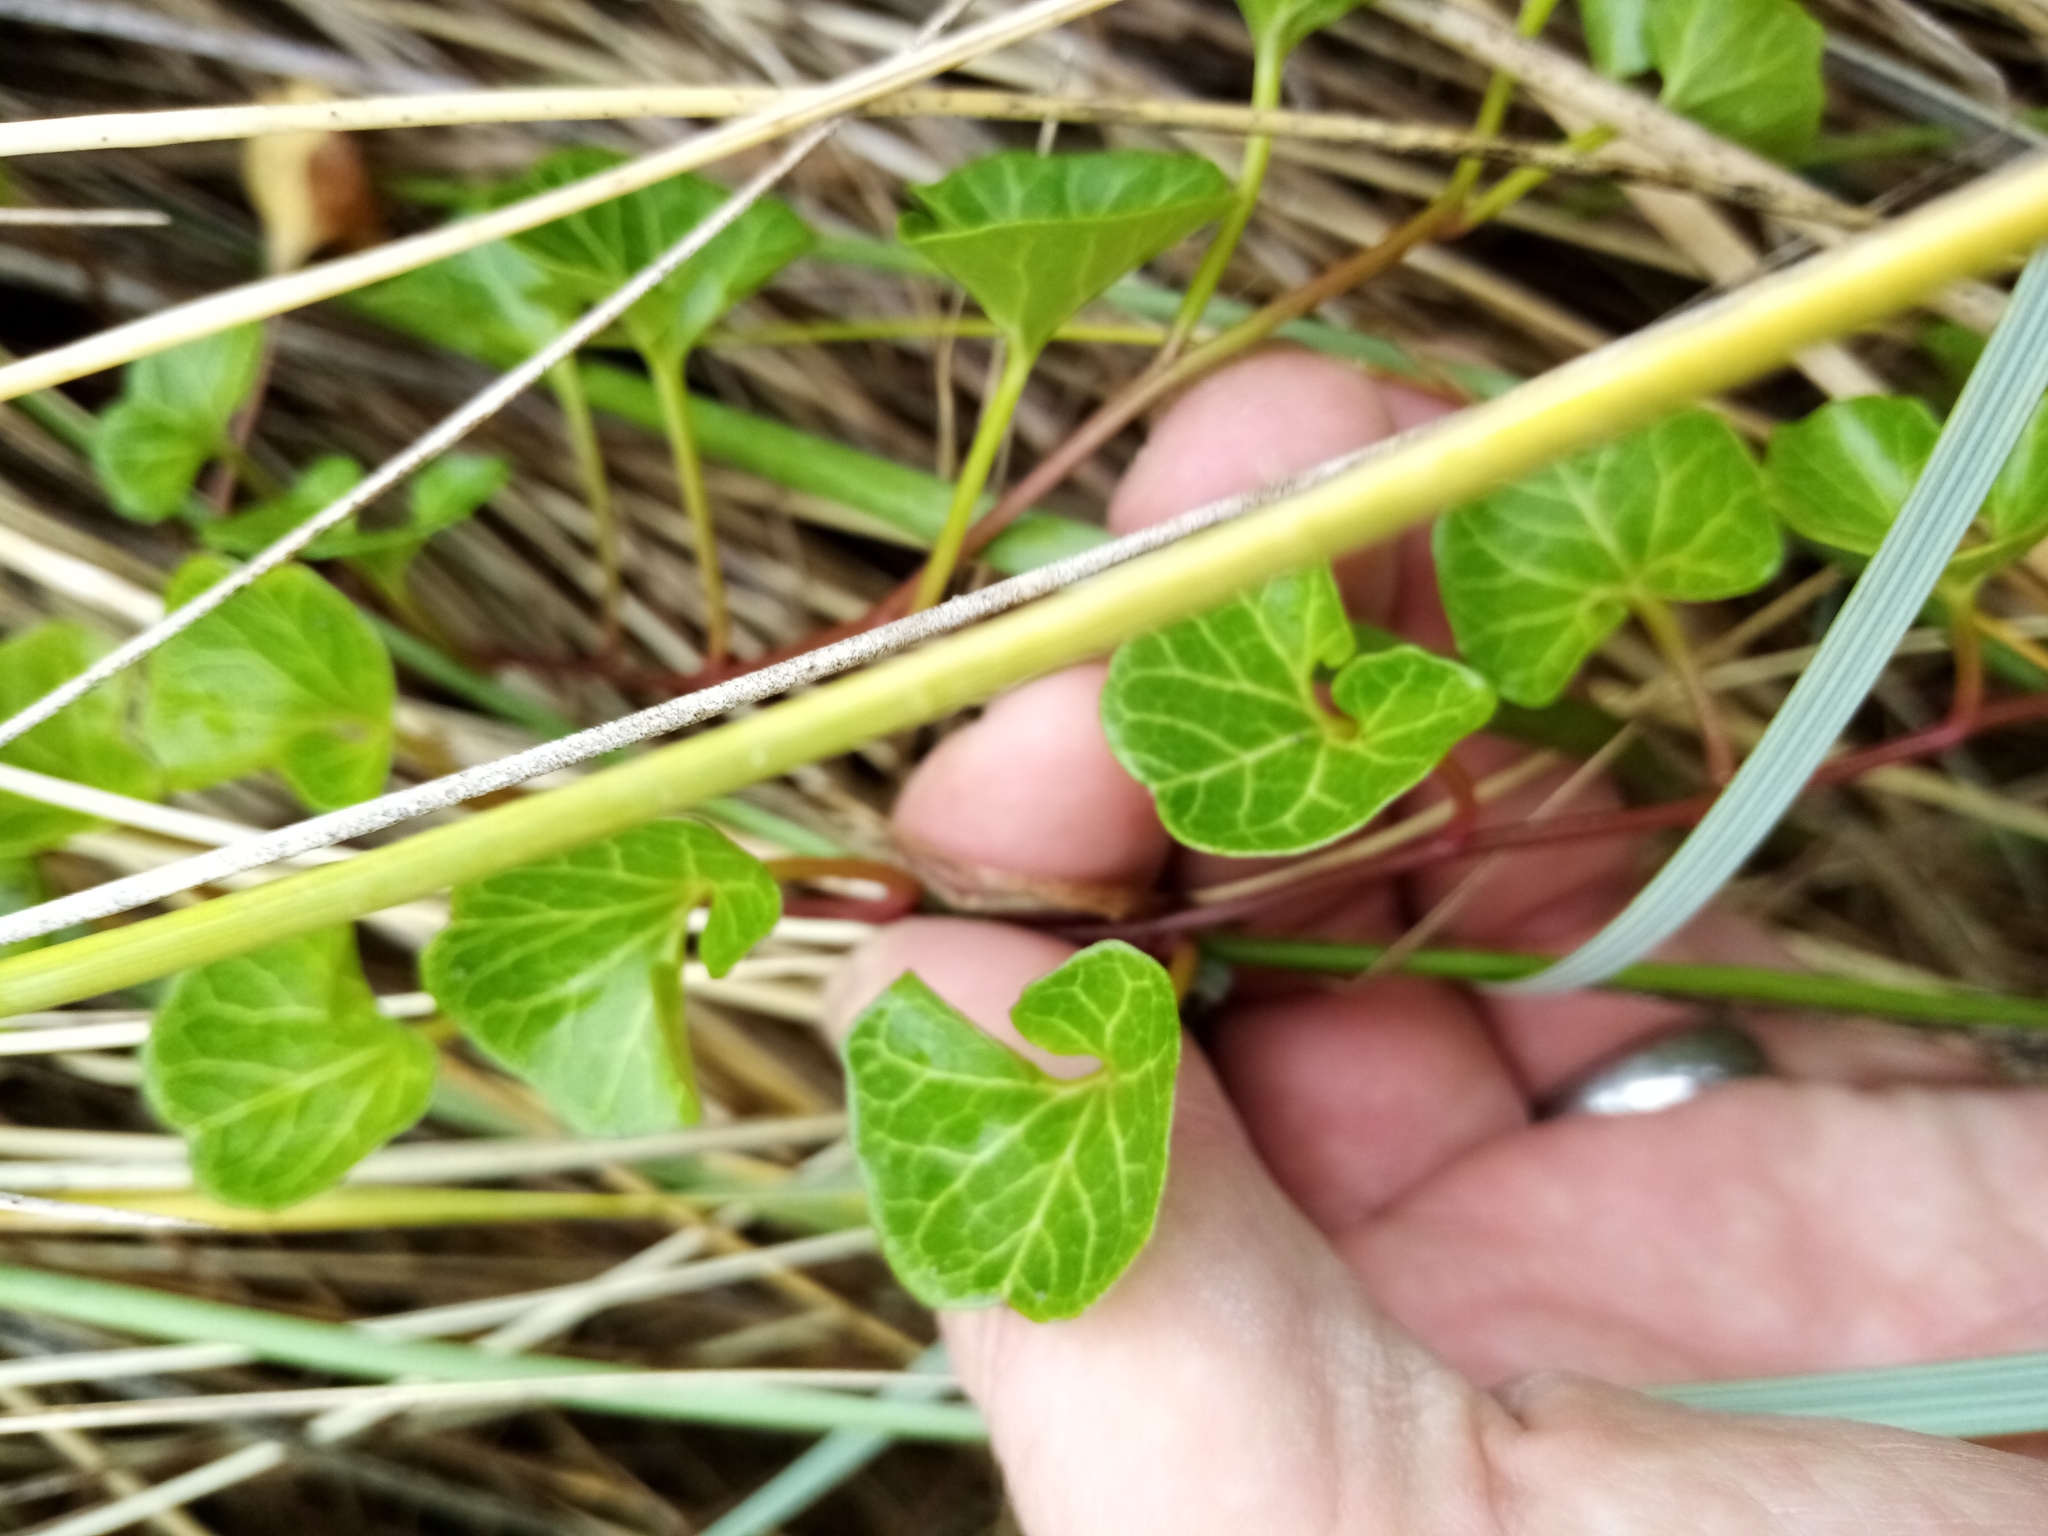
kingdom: Plantae
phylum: Tracheophyta
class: Magnoliopsida
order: Solanales
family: Convolvulaceae
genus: Calystegia
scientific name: Calystegia soldanella
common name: Sea bindweed
